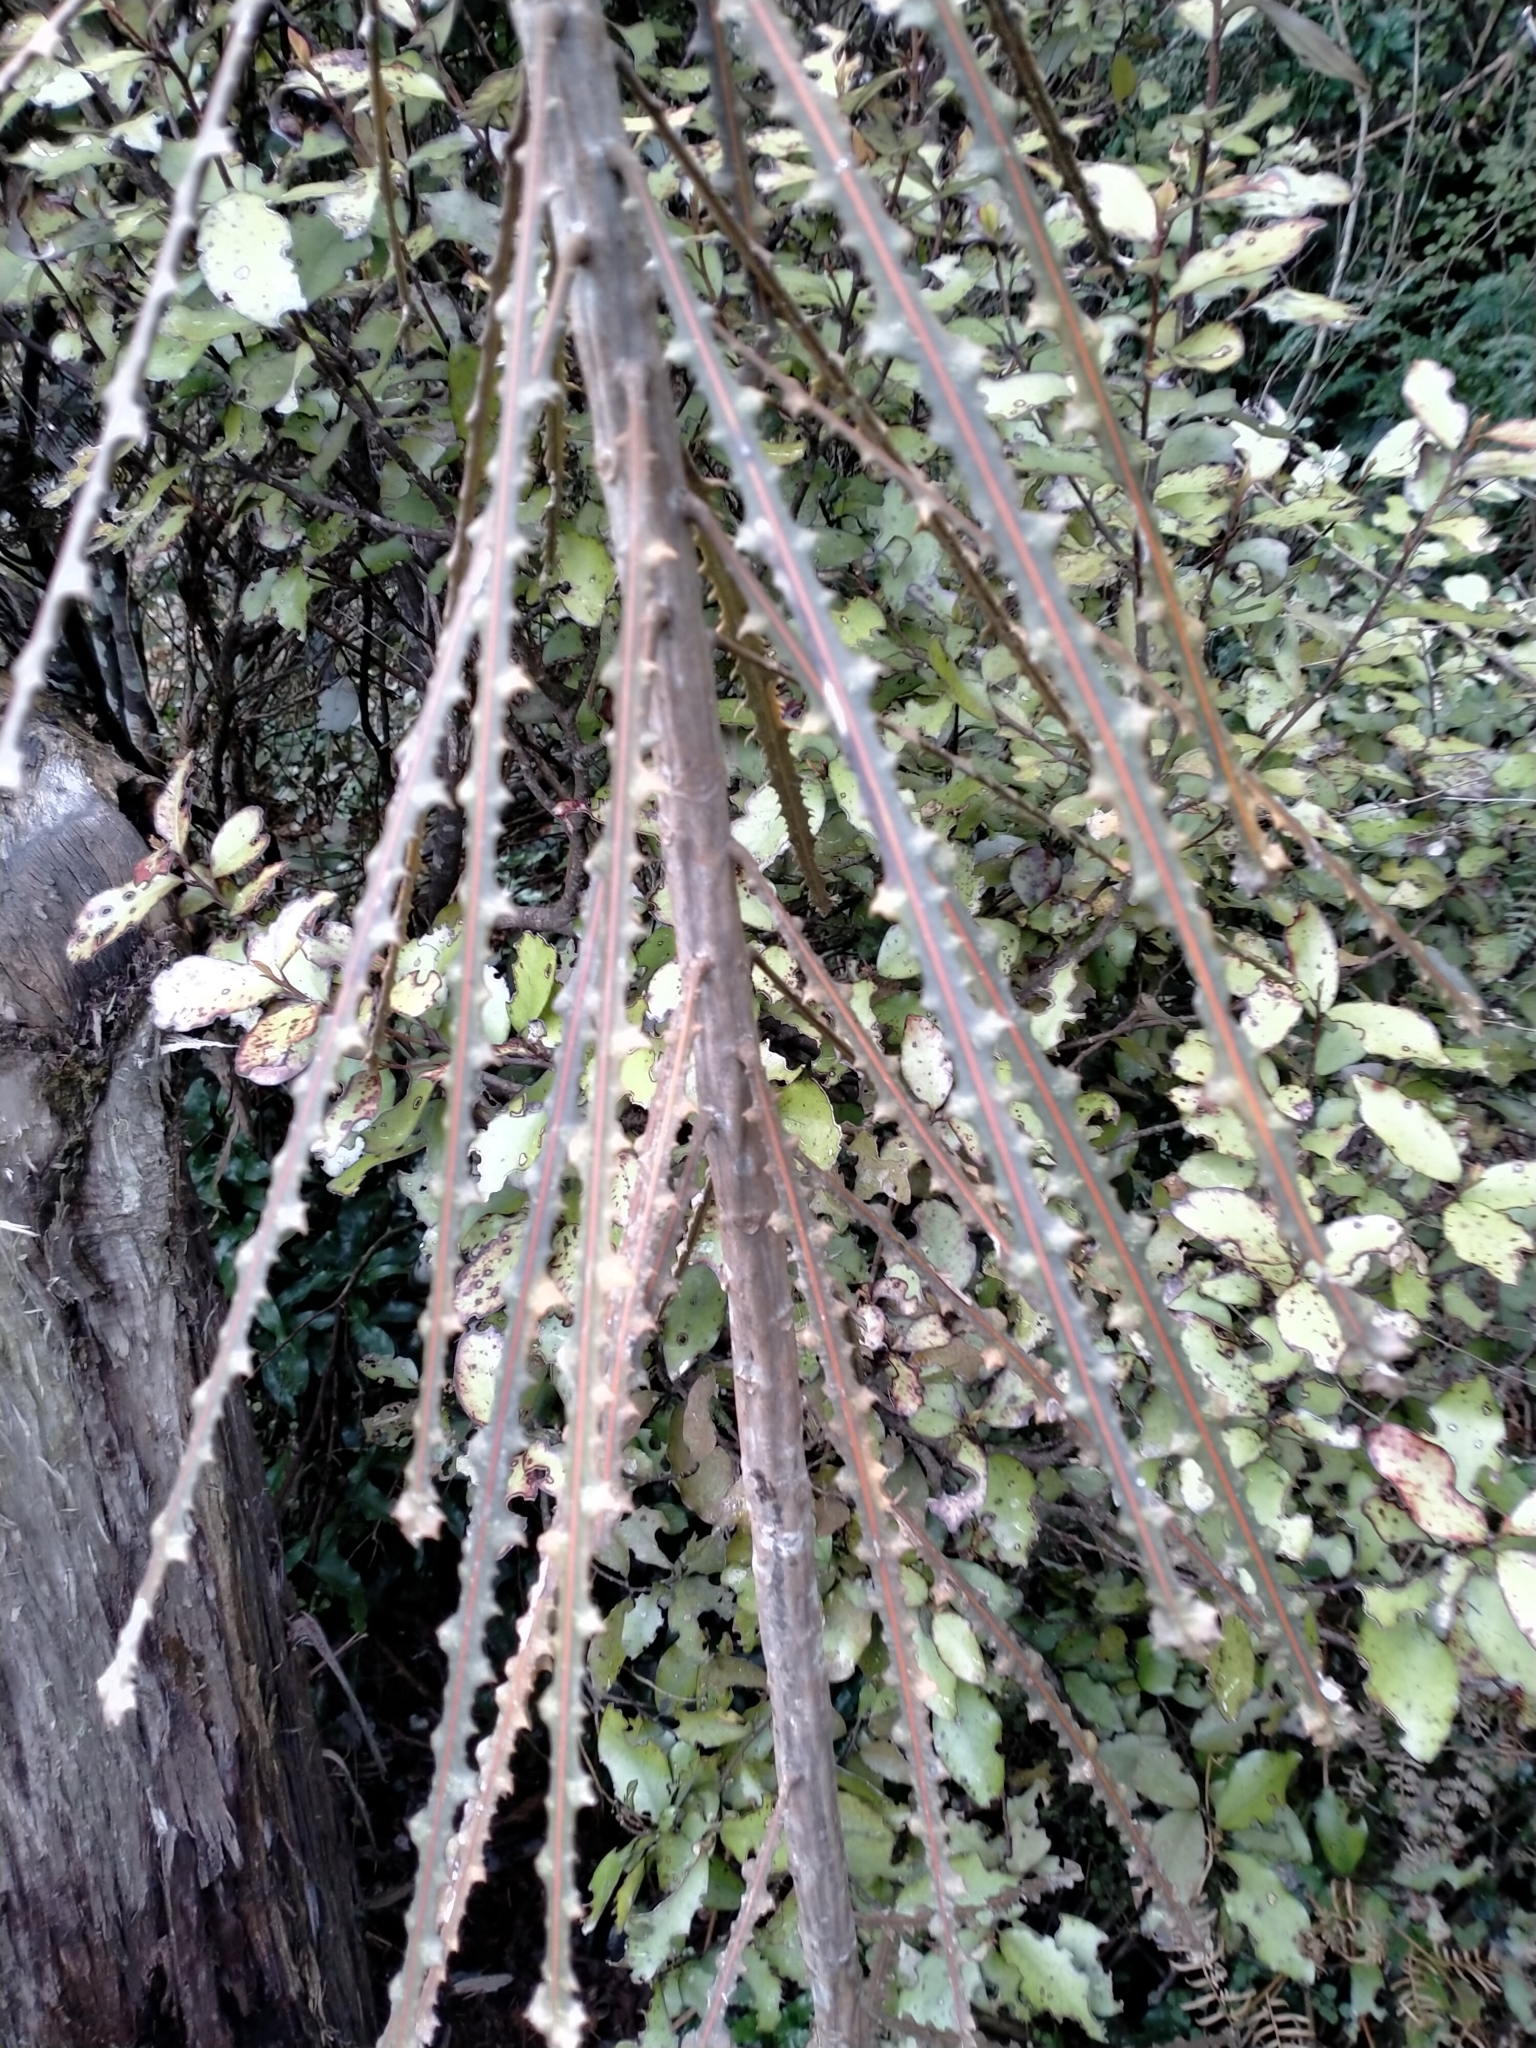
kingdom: Plantae
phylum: Tracheophyta
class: Magnoliopsida
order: Apiales
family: Araliaceae
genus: Pseudopanax
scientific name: Pseudopanax ferox
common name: Fierce lancewood
